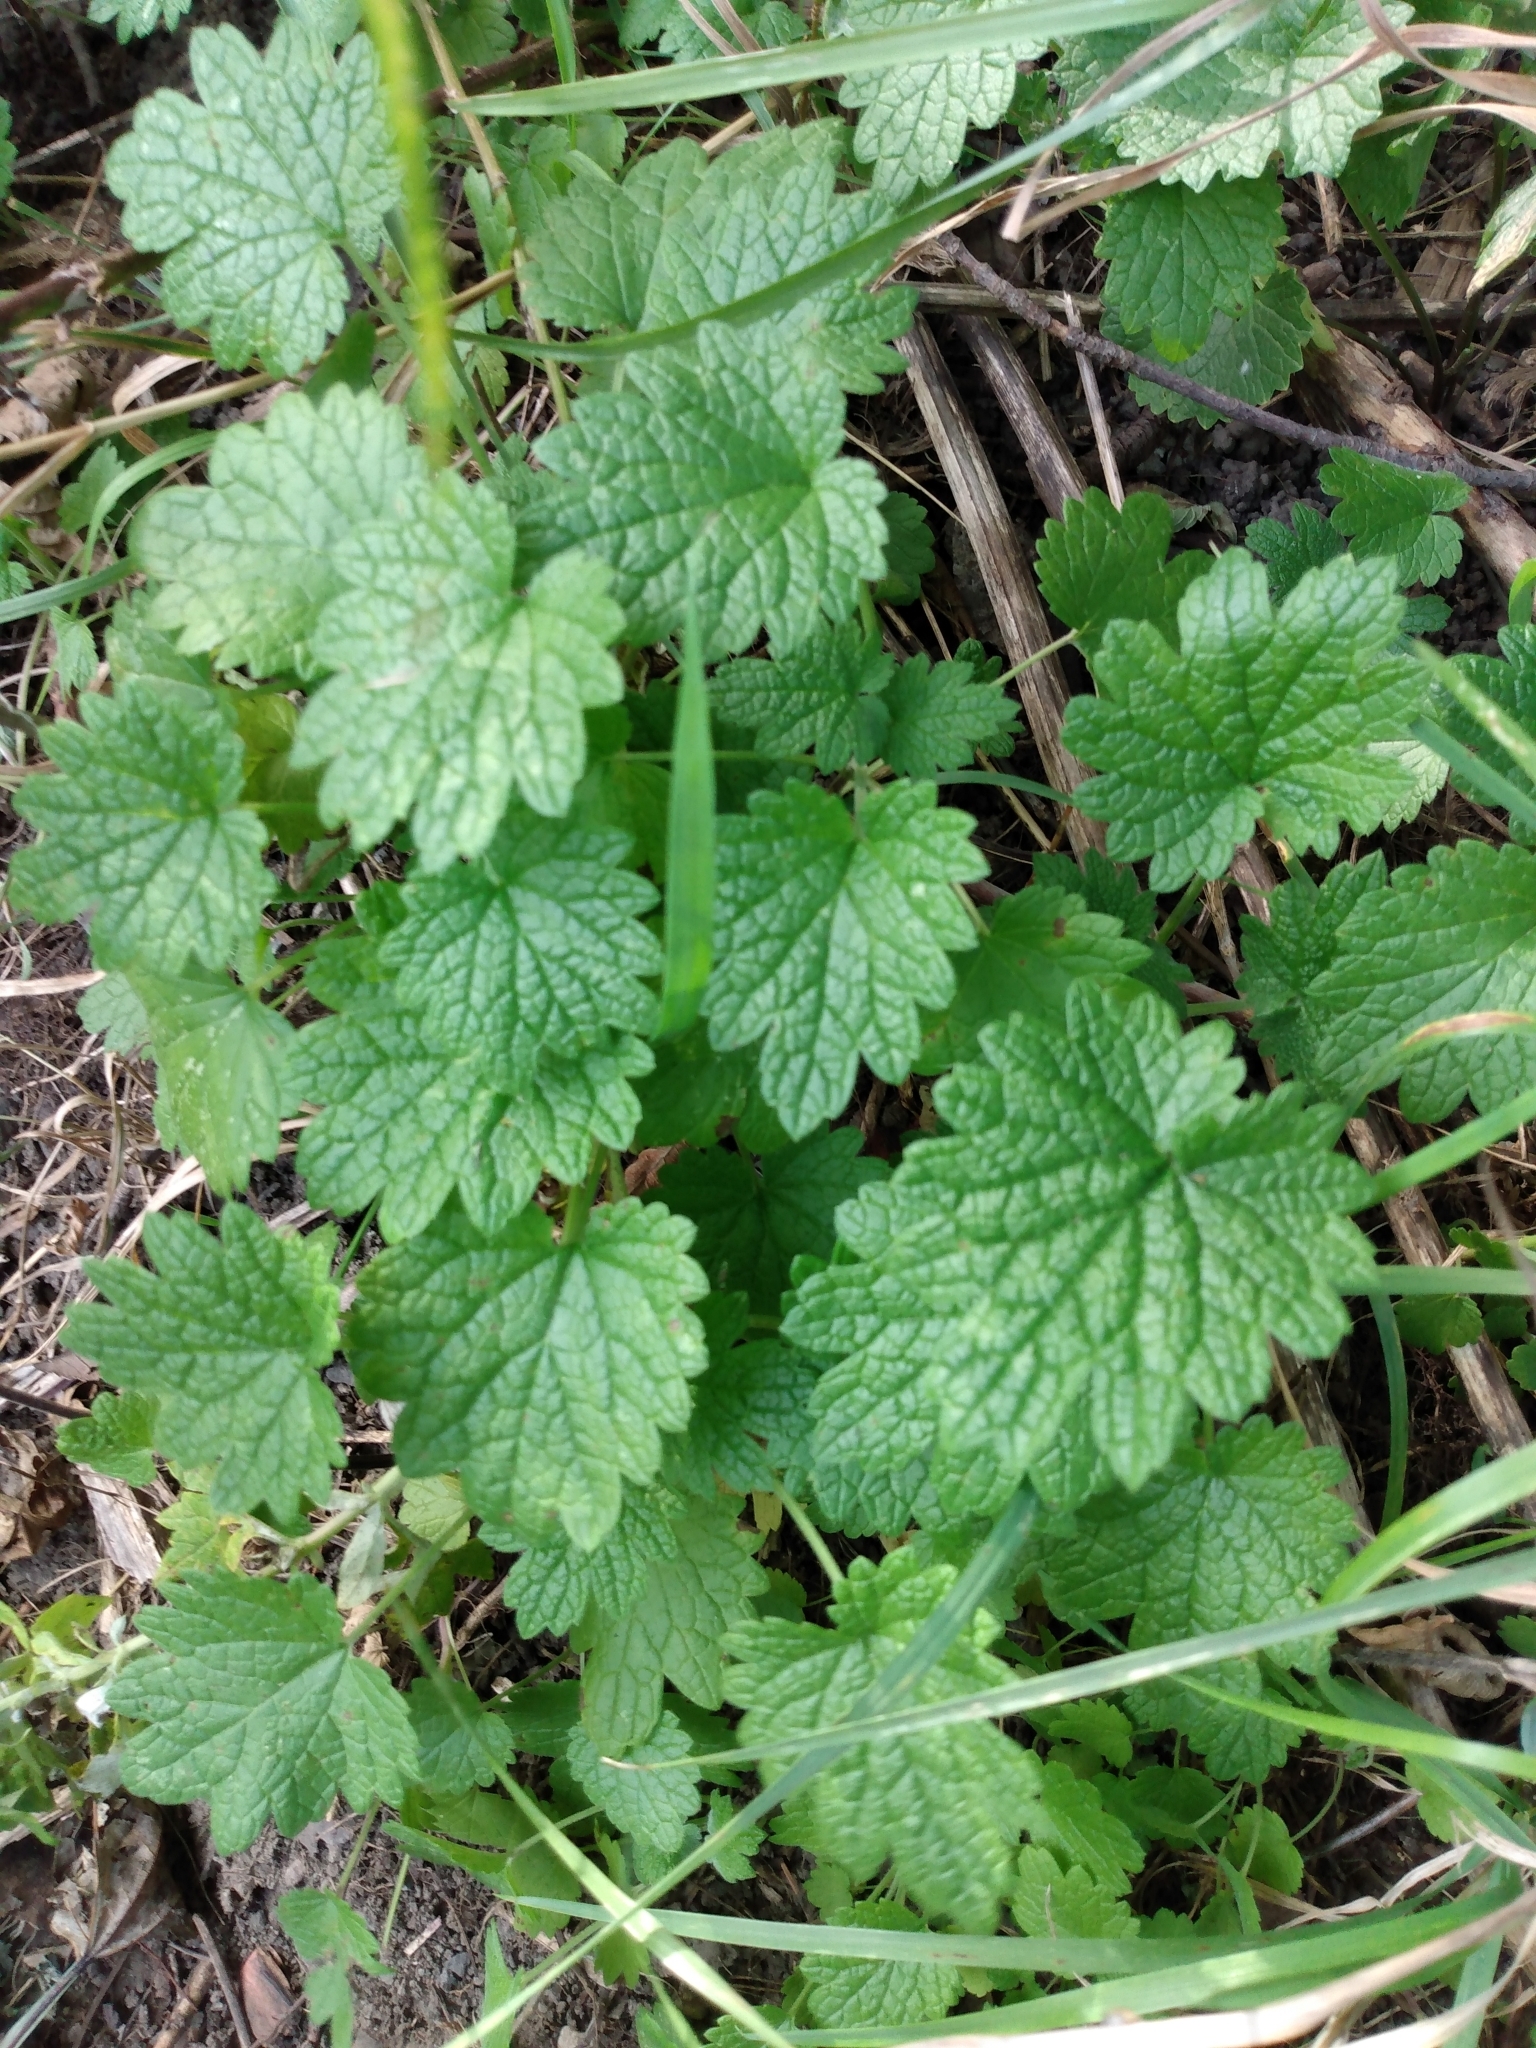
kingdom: Plantae
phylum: Tracheophyta
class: Magnoliopsida
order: Lamiales
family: Lamiaceae
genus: Leonurus
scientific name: Leonurus cardiaca
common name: Motherwort
